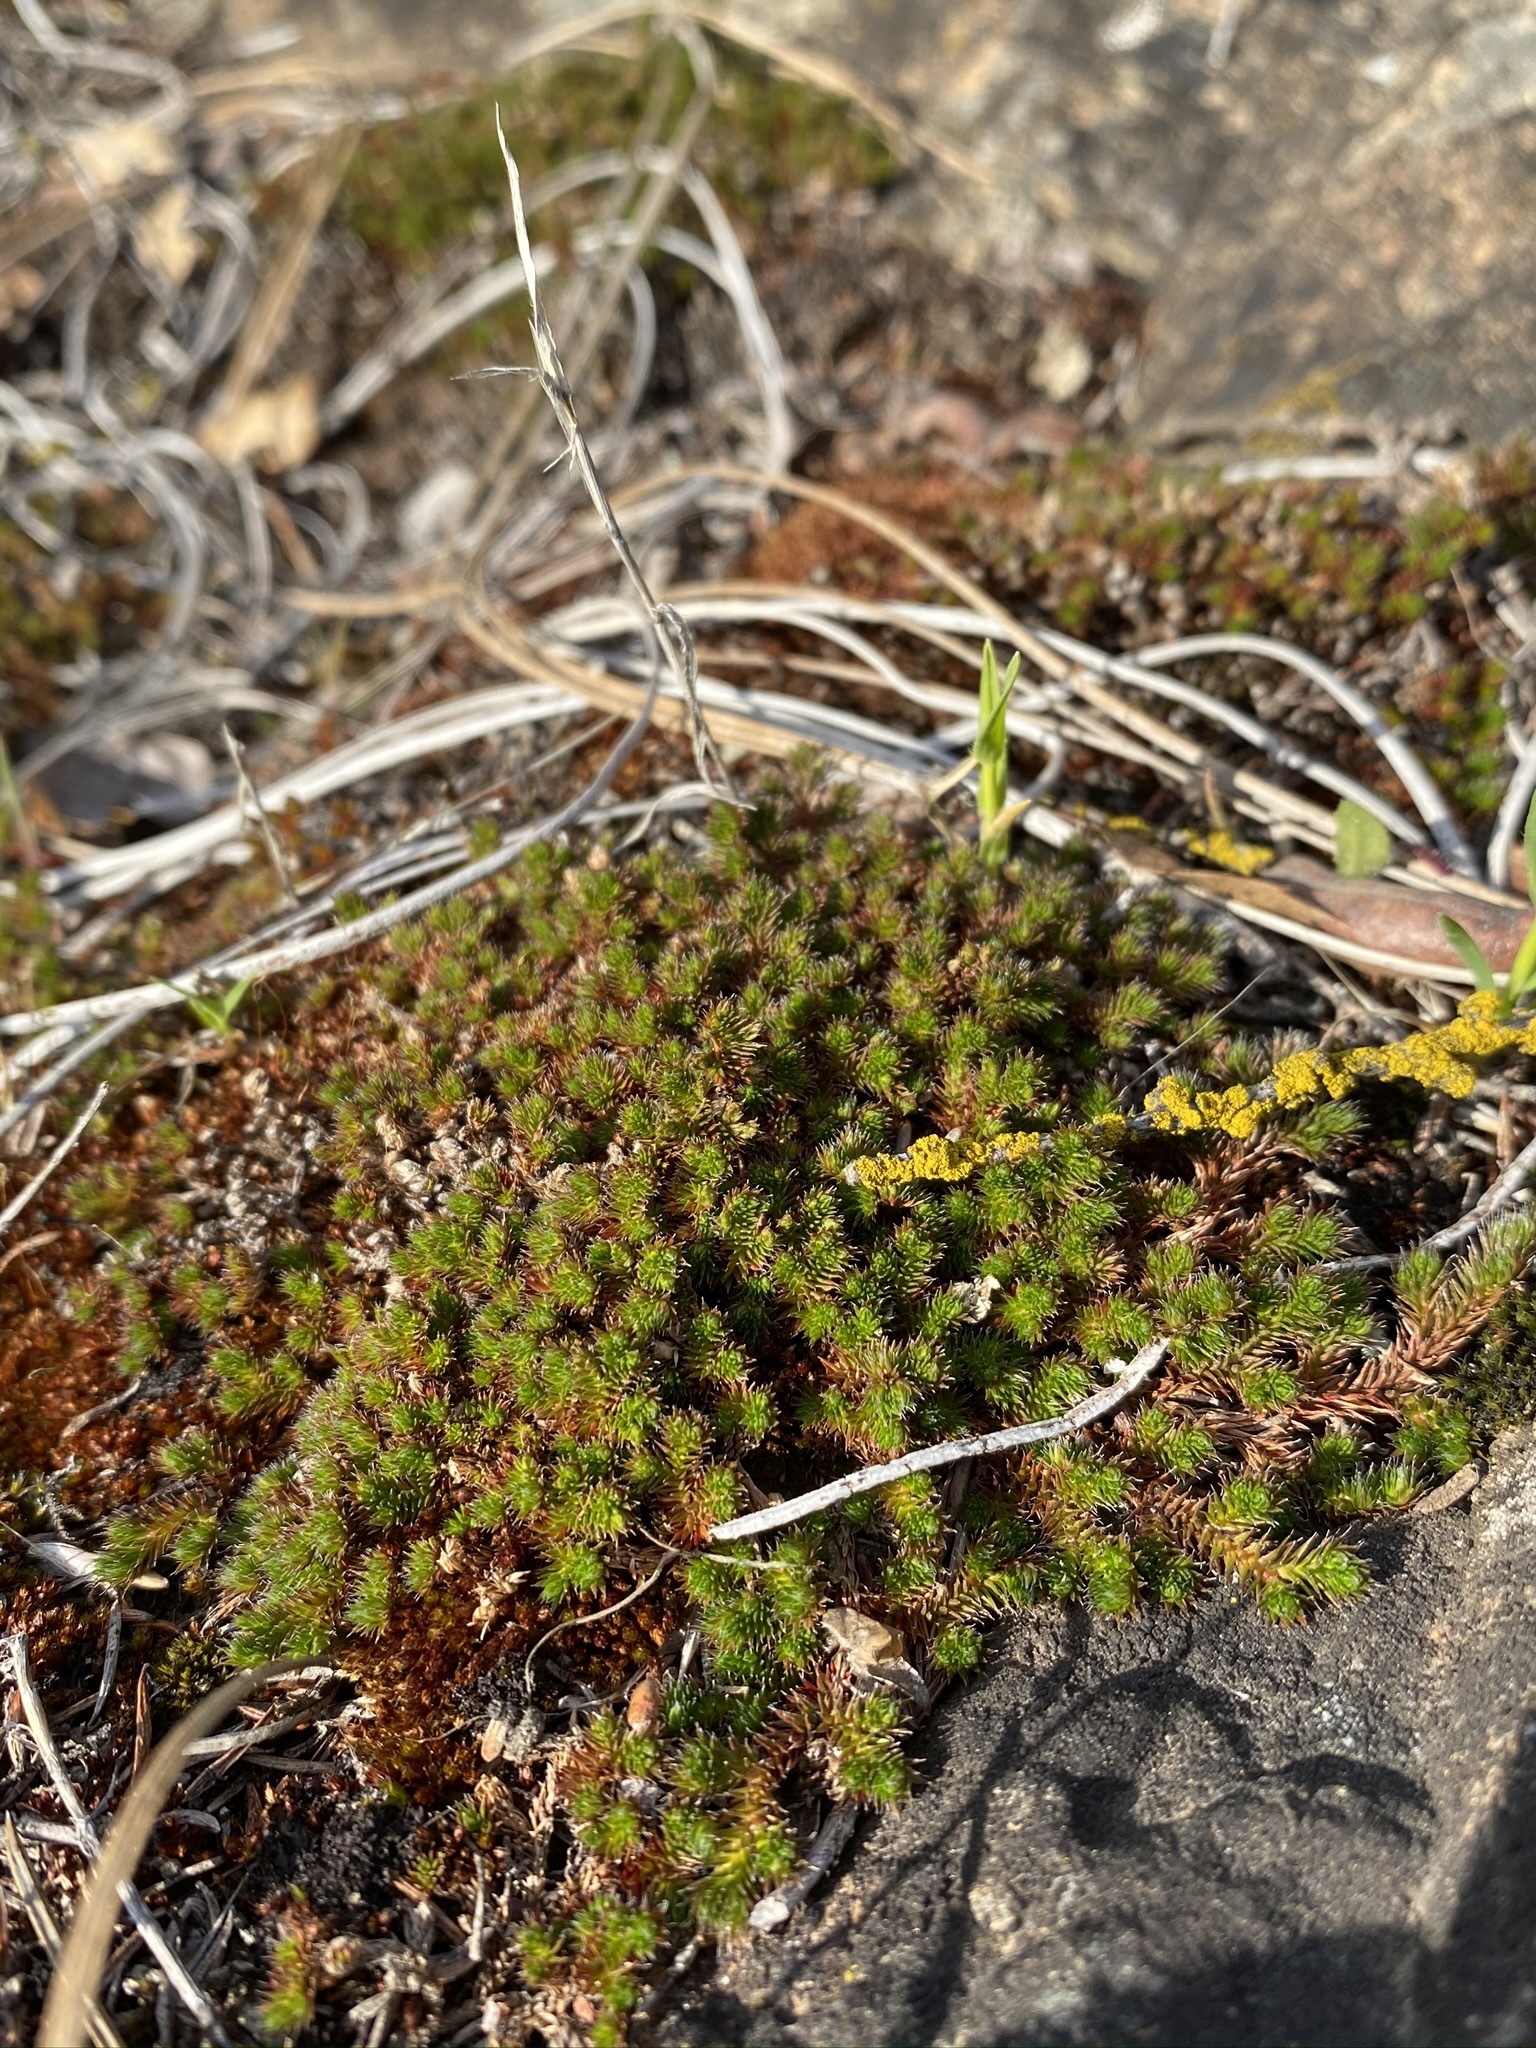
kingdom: Plantae
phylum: Tracheophyta
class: Lycopodiopsida
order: Selaginellales
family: Selaginellaceae
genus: Selaginella
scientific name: Selaginella hansenii
